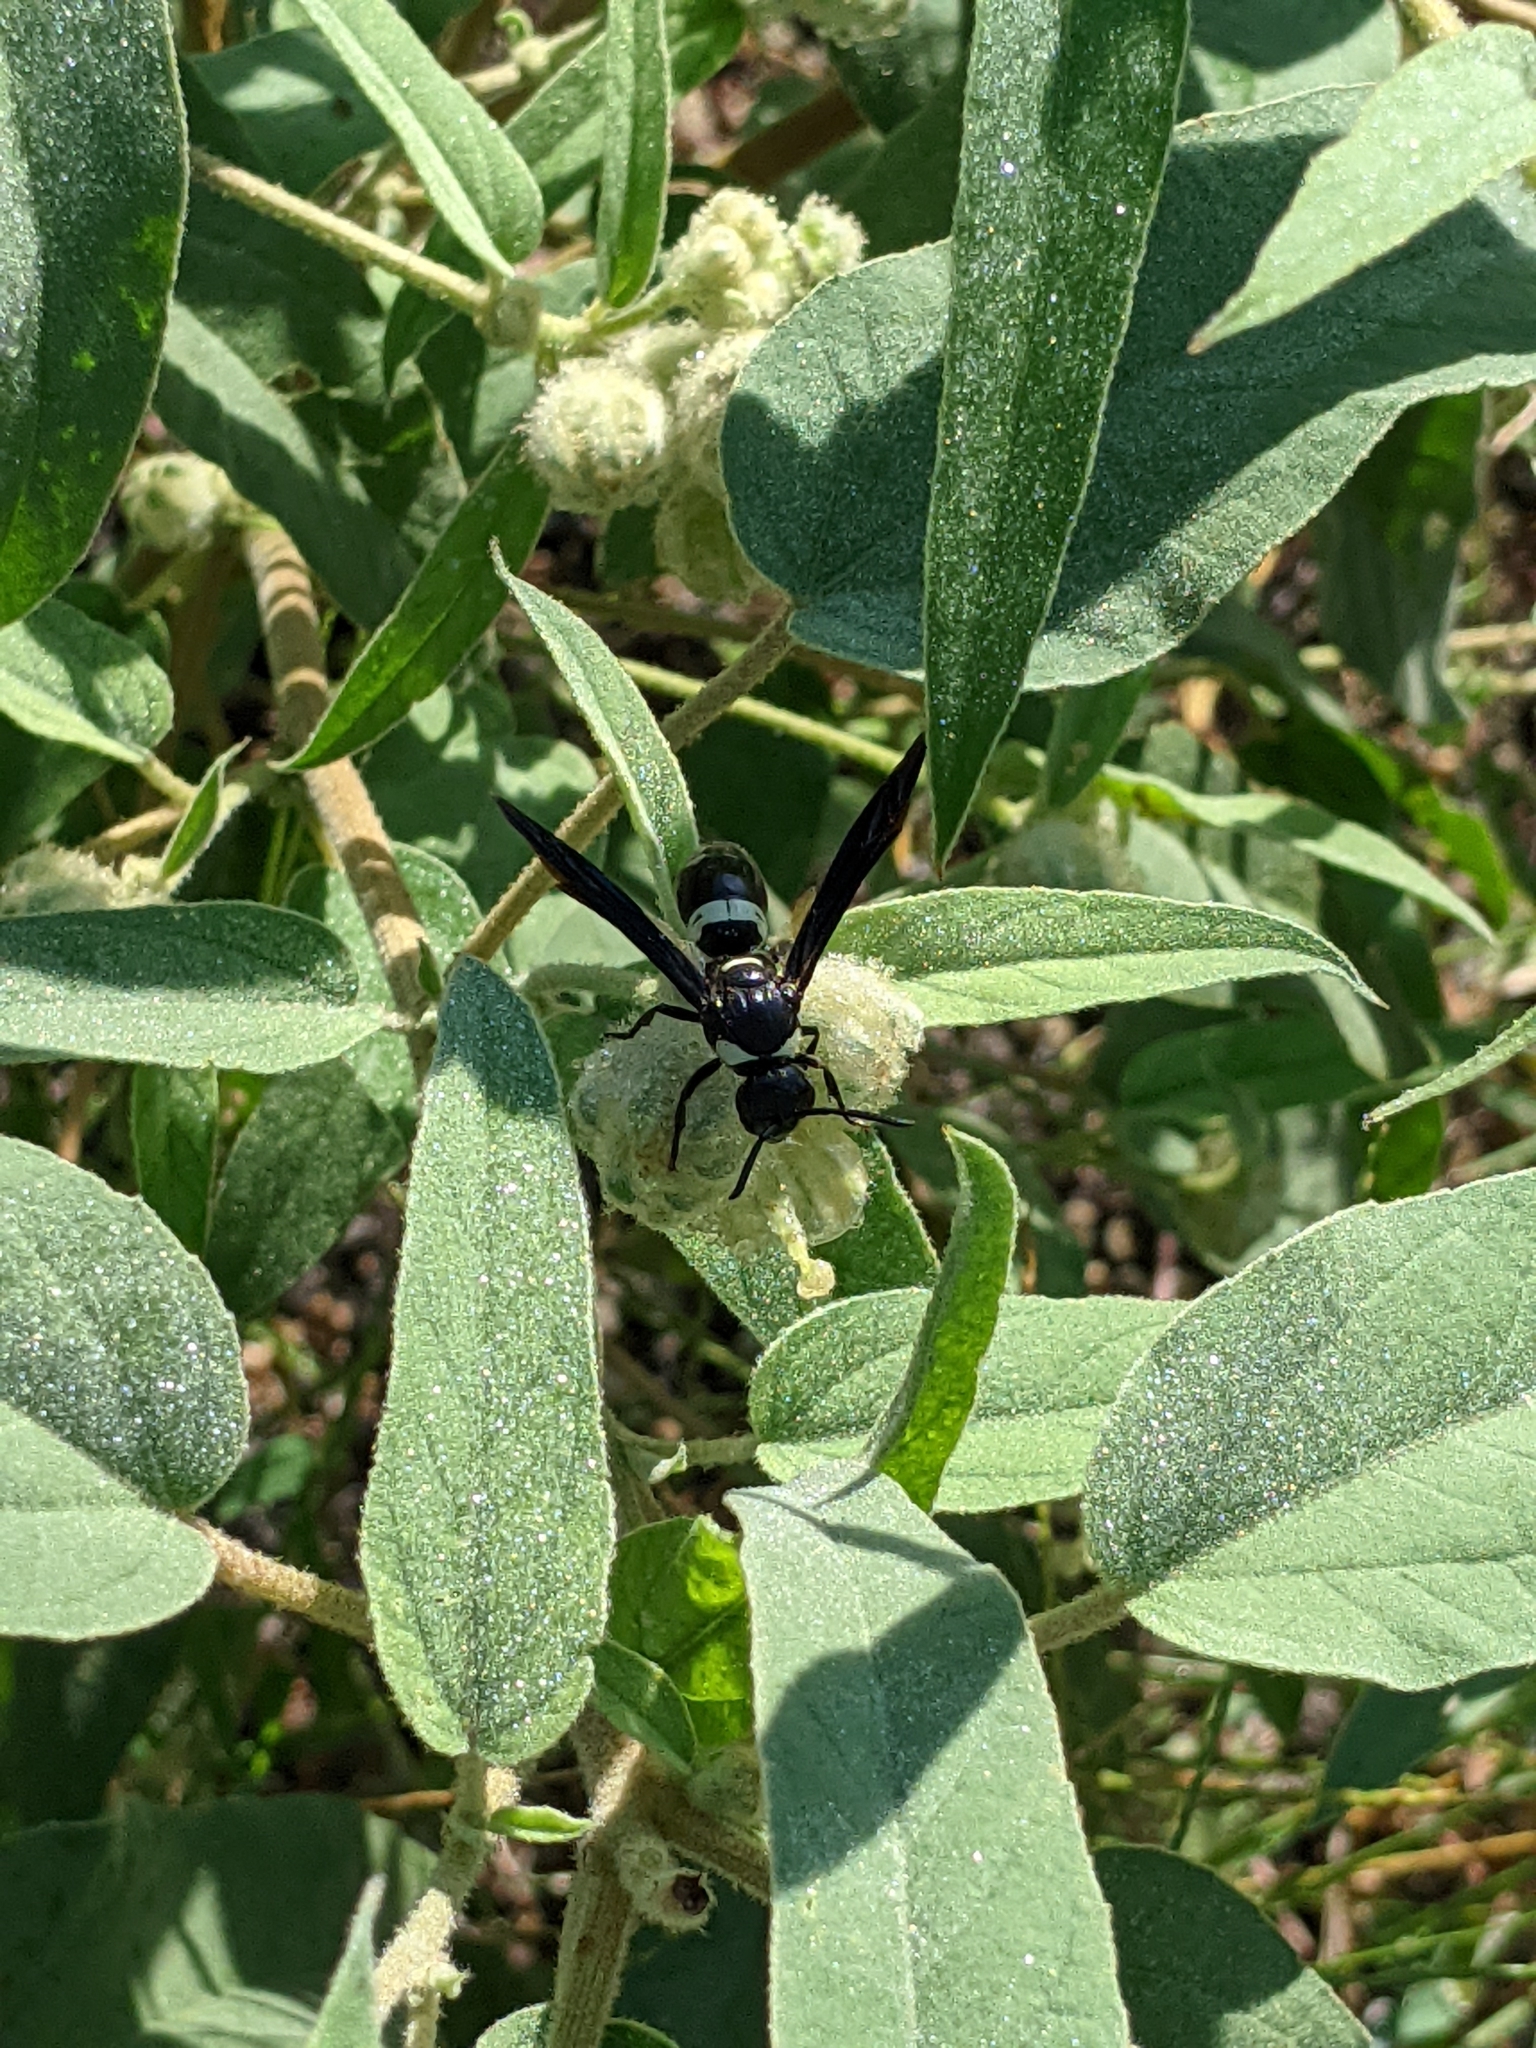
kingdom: Animalia
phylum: Arthropoda
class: Insecta
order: Hymenoptera
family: Eumenidae
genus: Monobia
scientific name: Monobia quadridens
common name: Four-toothed mason wasp
